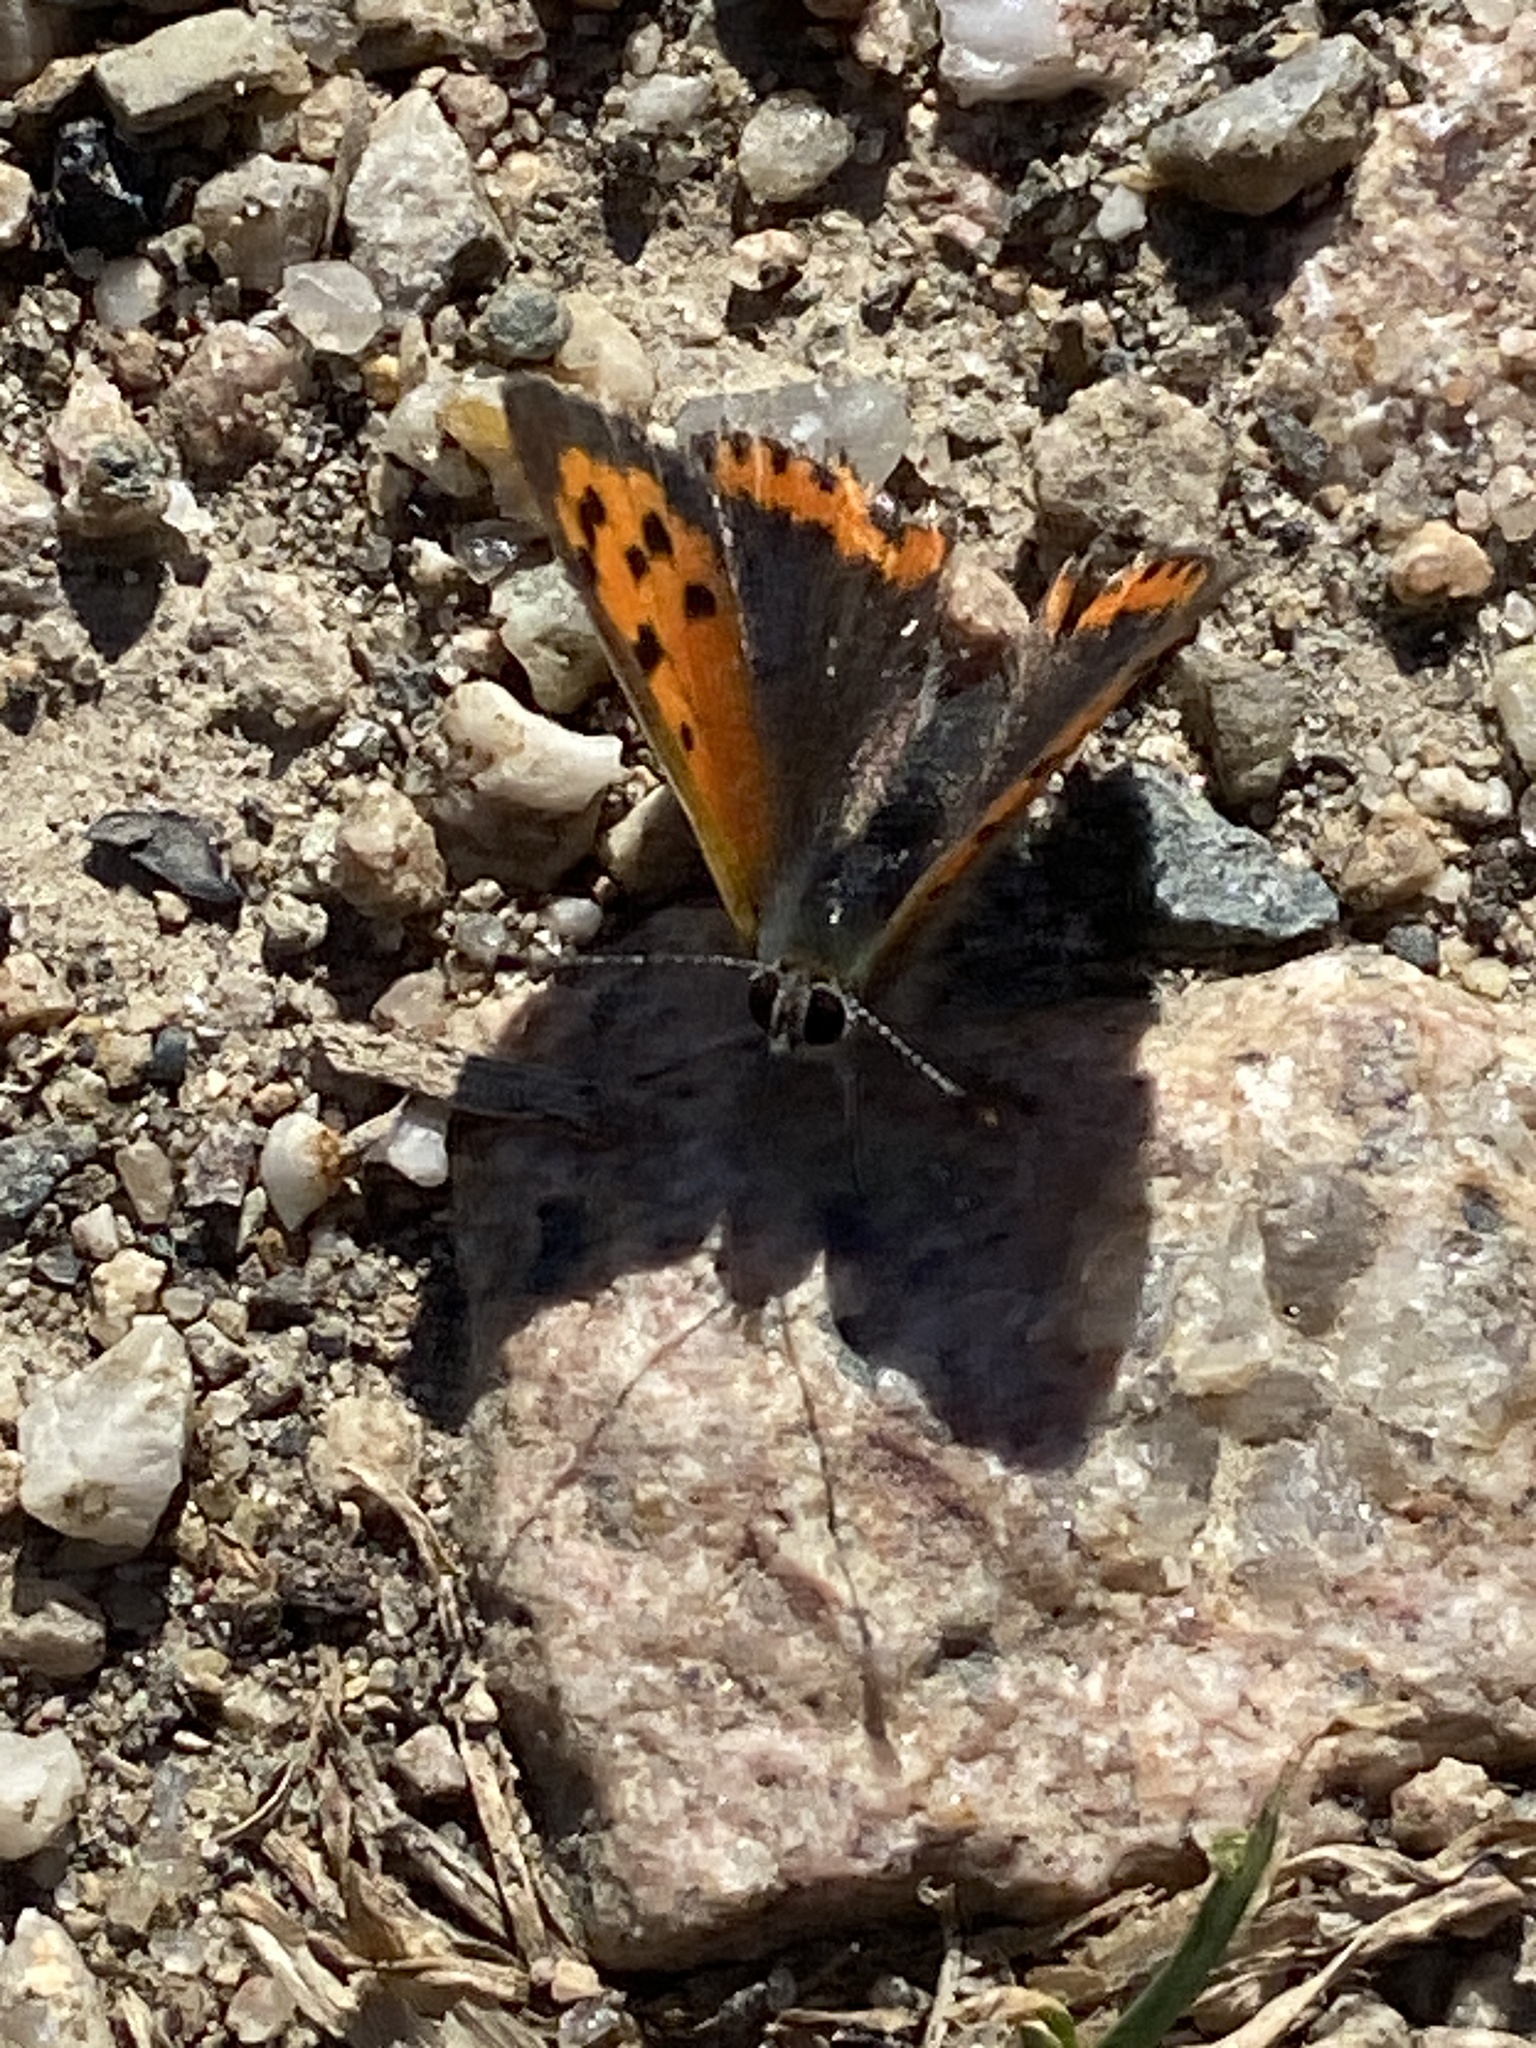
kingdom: Animalia
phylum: Arthropoda
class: Insecta
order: Lepidoptera
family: Lycaenidae
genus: Lycaena
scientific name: Lycaena phlaeas
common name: Small copper
